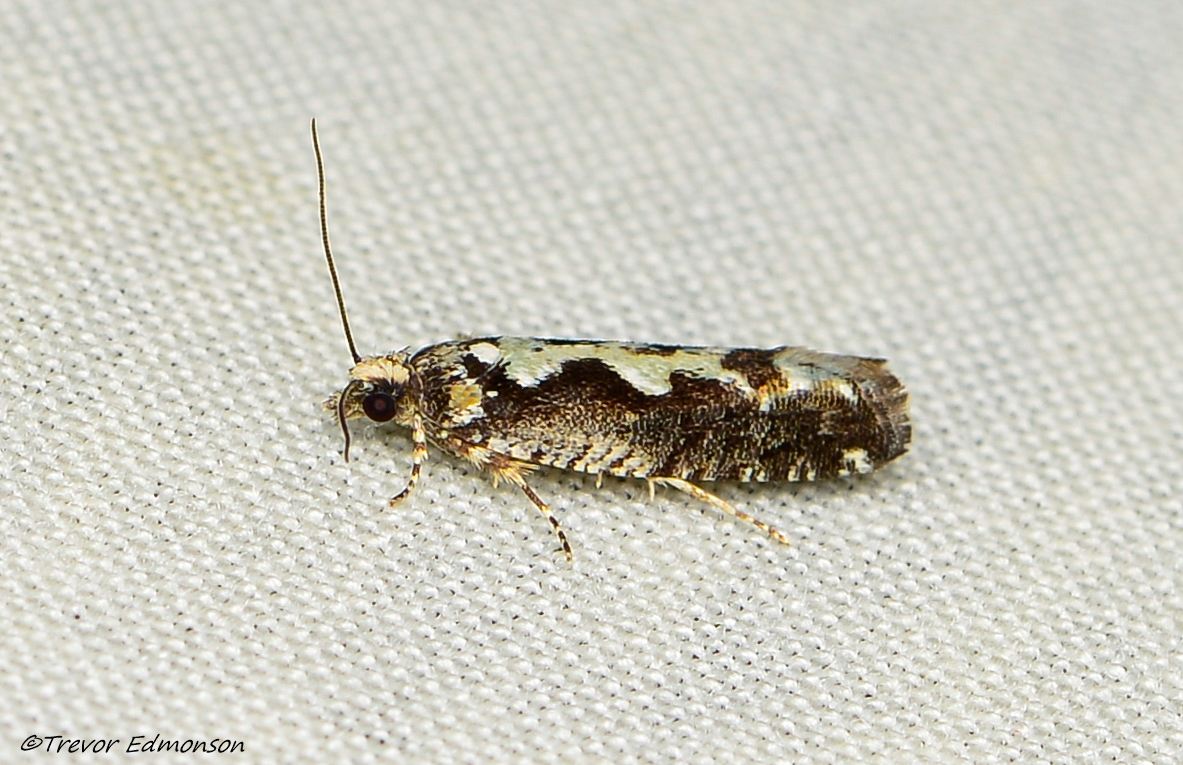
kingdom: Animalia
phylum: Arthropoda
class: Insecta
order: Lepidoptera
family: Tortricidae
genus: Chimoptesis
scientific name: Chimoptesis pennsylvaniana
